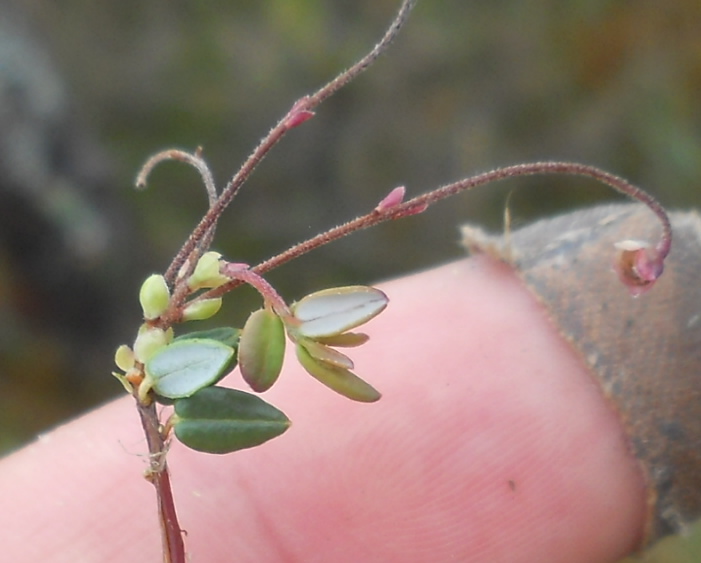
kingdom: Plantae
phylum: Tracheophyta
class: Magnoliopsida
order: Ericales
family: Ericaceae
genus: Vaccinium
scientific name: Vaccinium oxycoccos
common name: Cranberry
